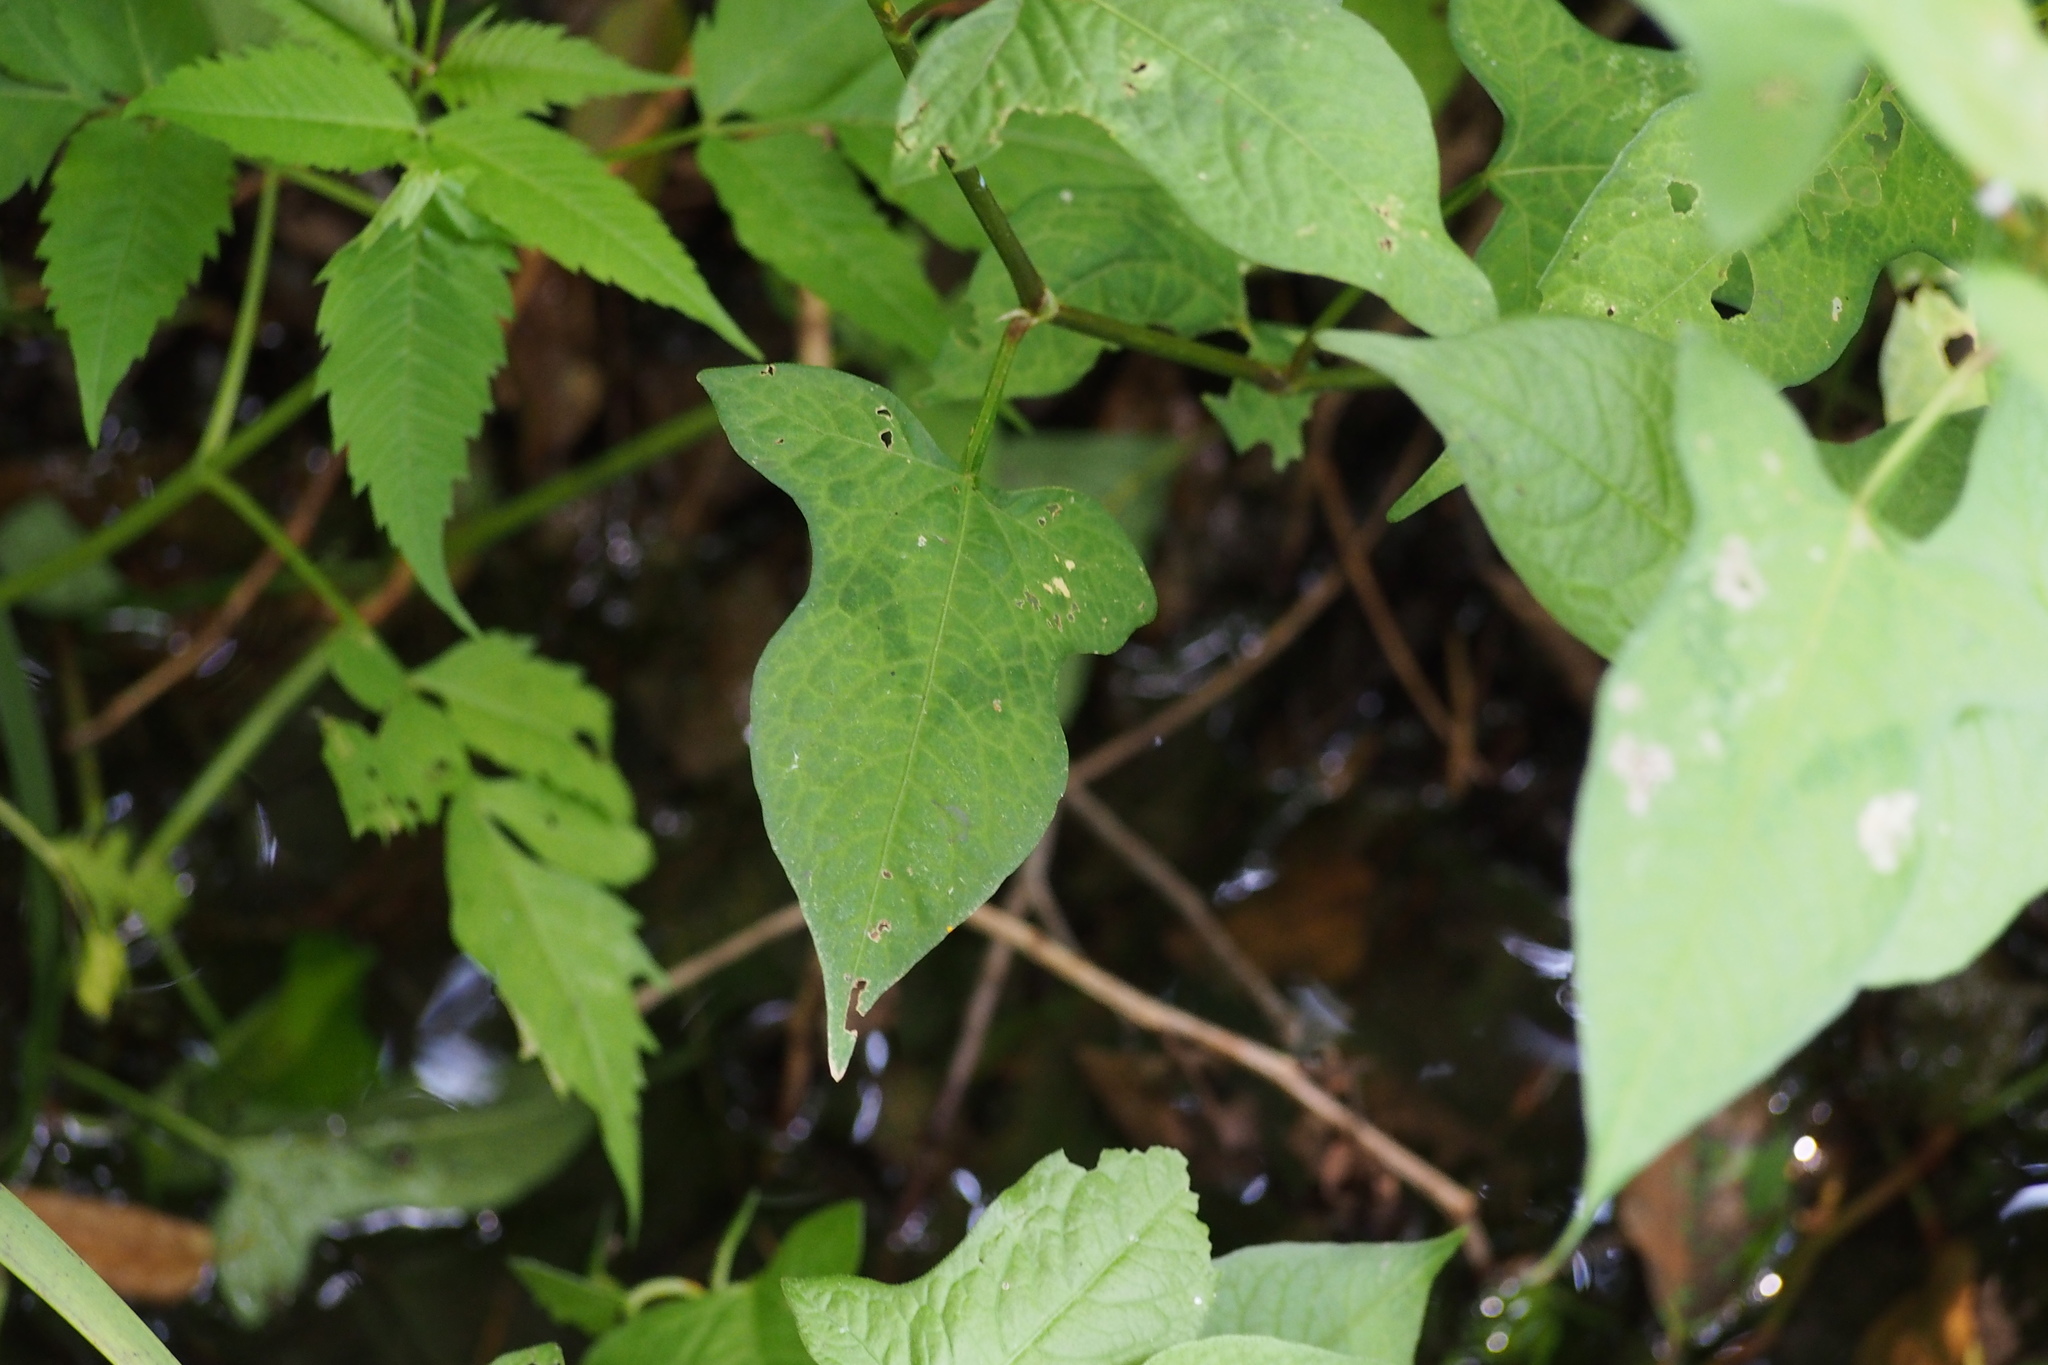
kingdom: Plantae
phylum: Tracheophyta
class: Magnoliopsida
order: Caryophyllales
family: Polygonaceae
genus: Persicaria
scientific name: Persicaria thunbergii
